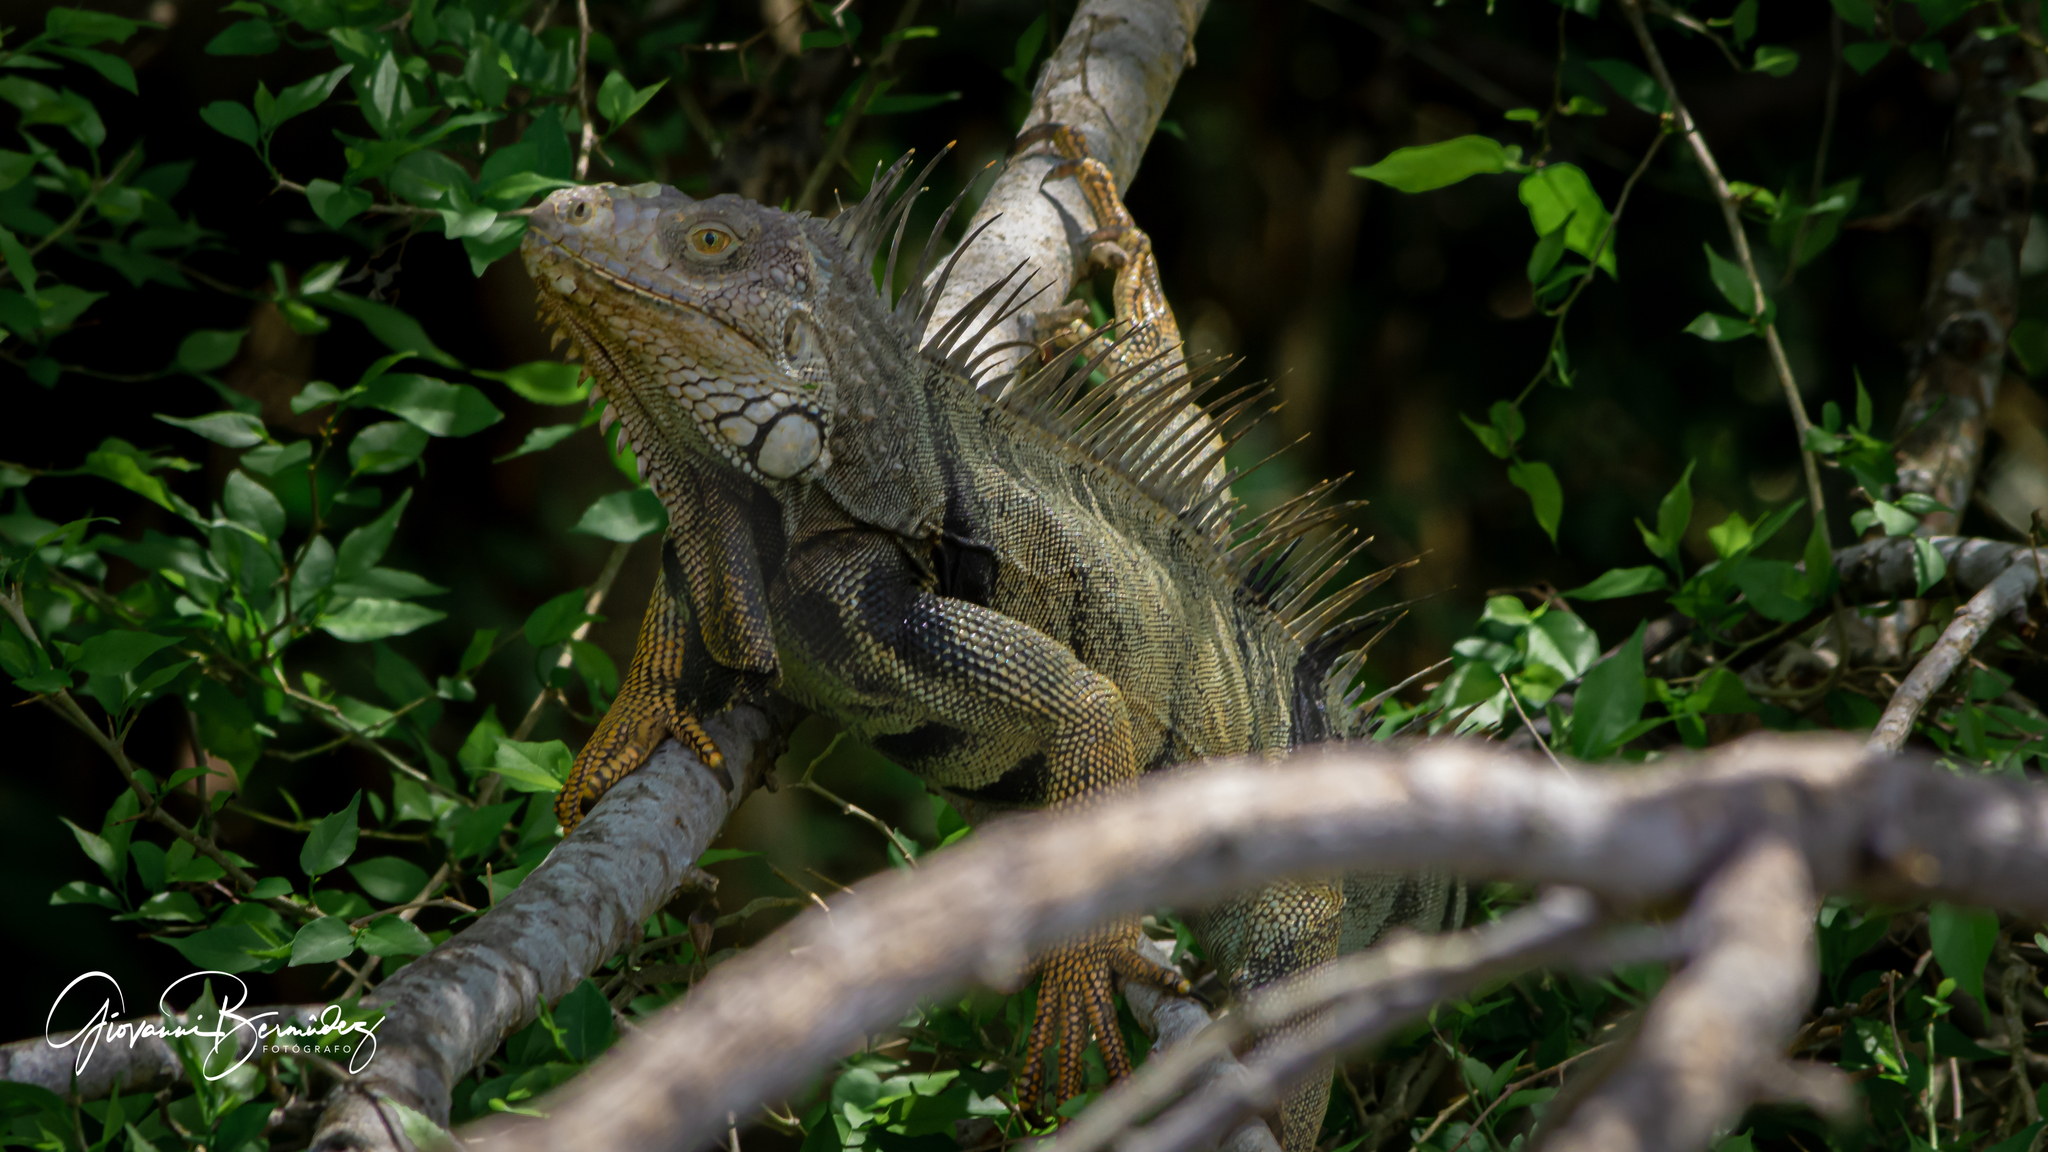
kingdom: Animalia
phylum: Chordata
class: Squamata
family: Iguanidae
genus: Iguana
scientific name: Iguana iguana
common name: Green iguana
